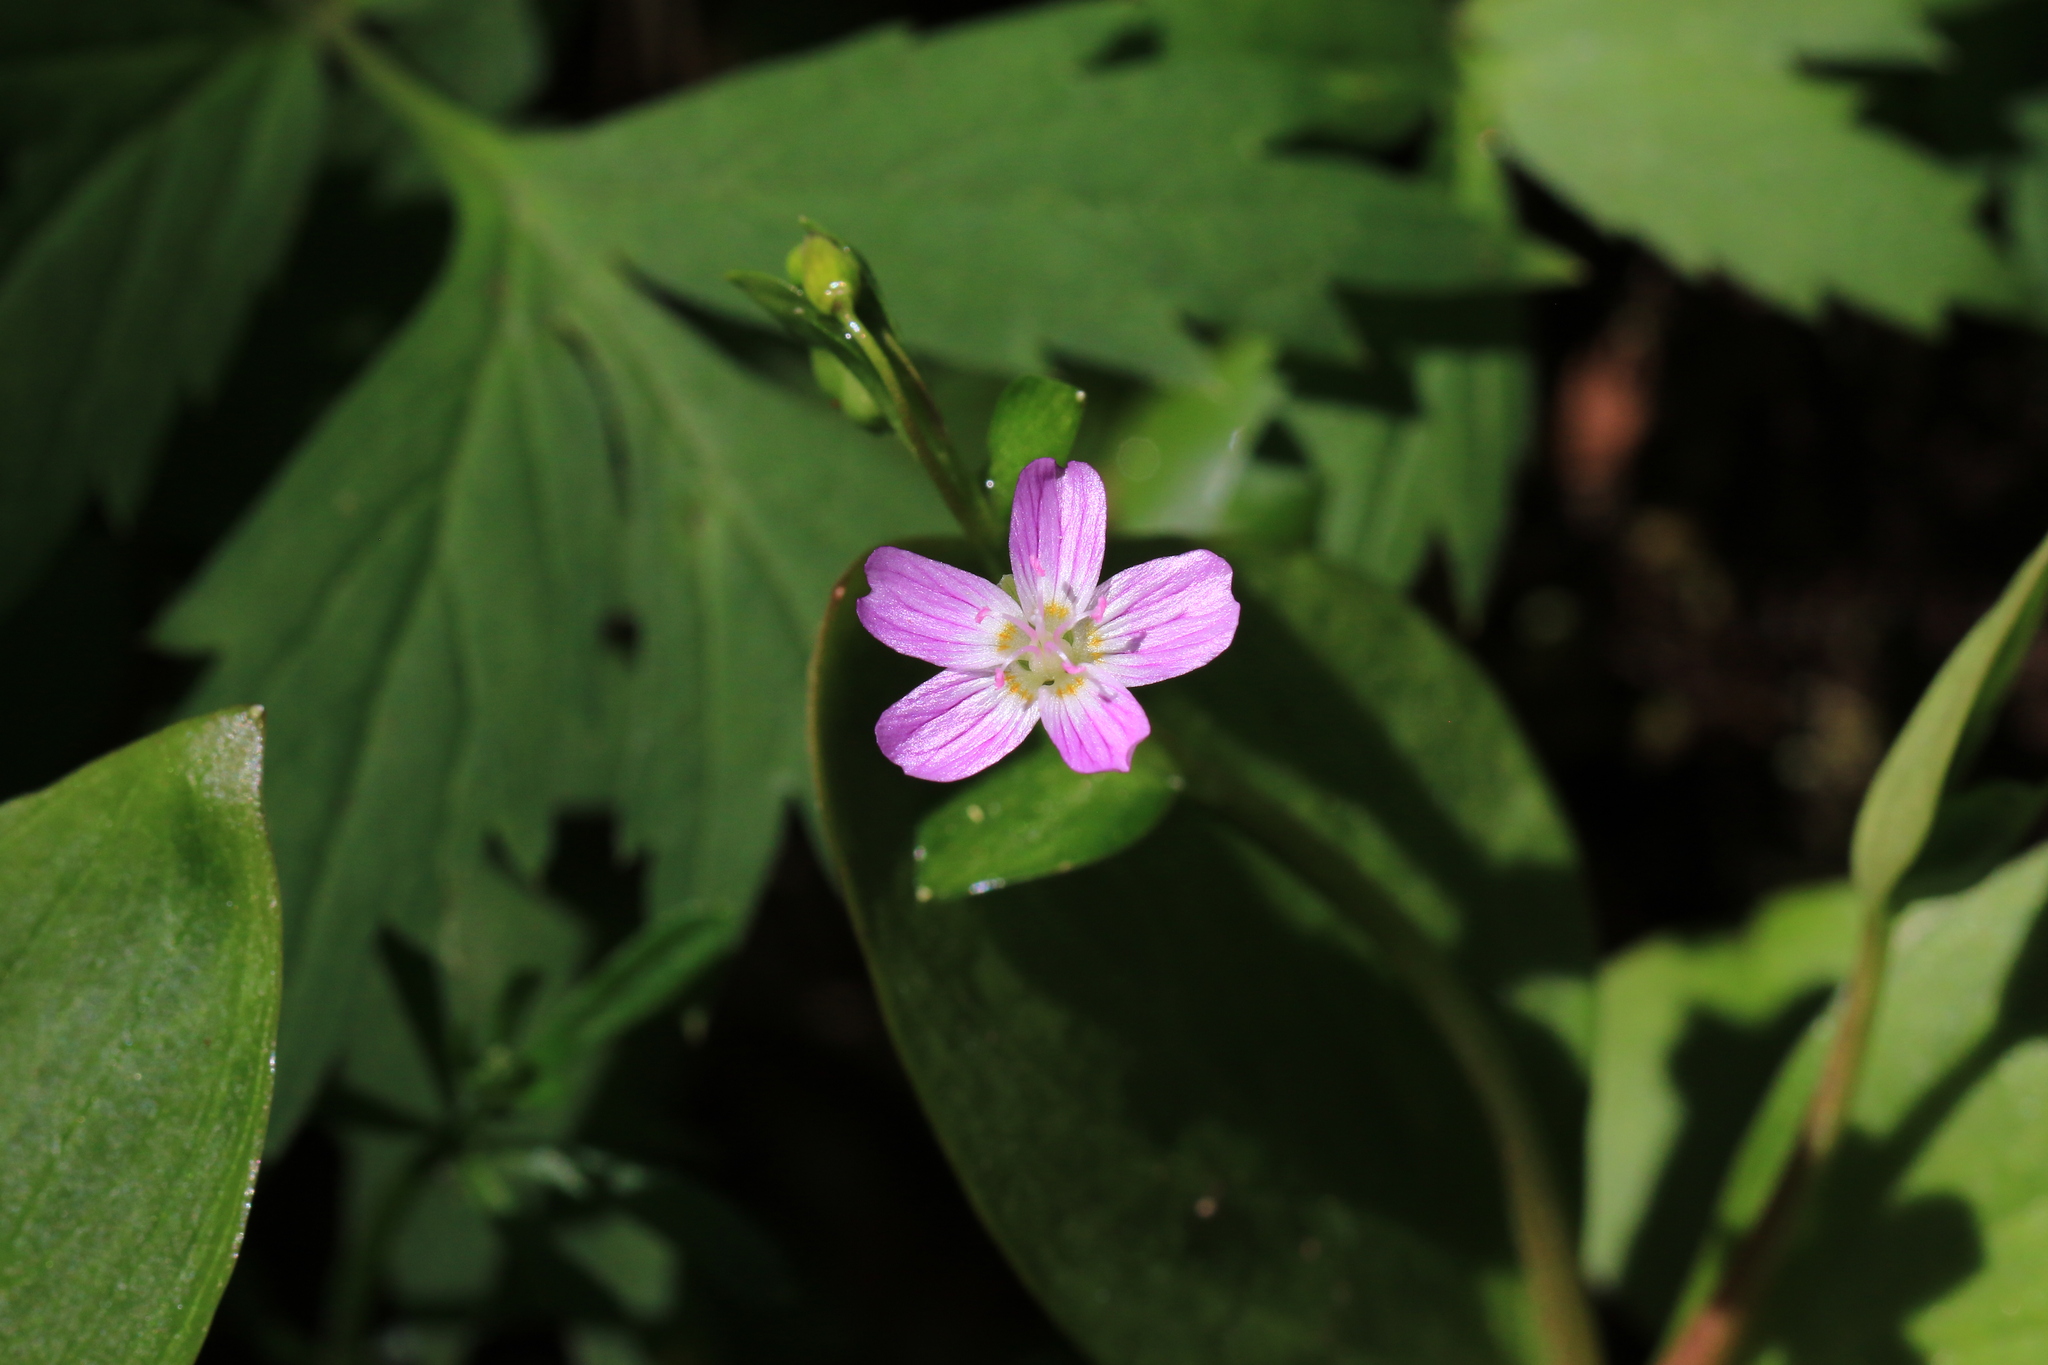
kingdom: Plantae
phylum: Tracheophyta
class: Magnoliopsida
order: Caryophyllales
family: Montiaceae
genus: Claytonia
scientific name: Claytonia sibirica
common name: Pink purslane
